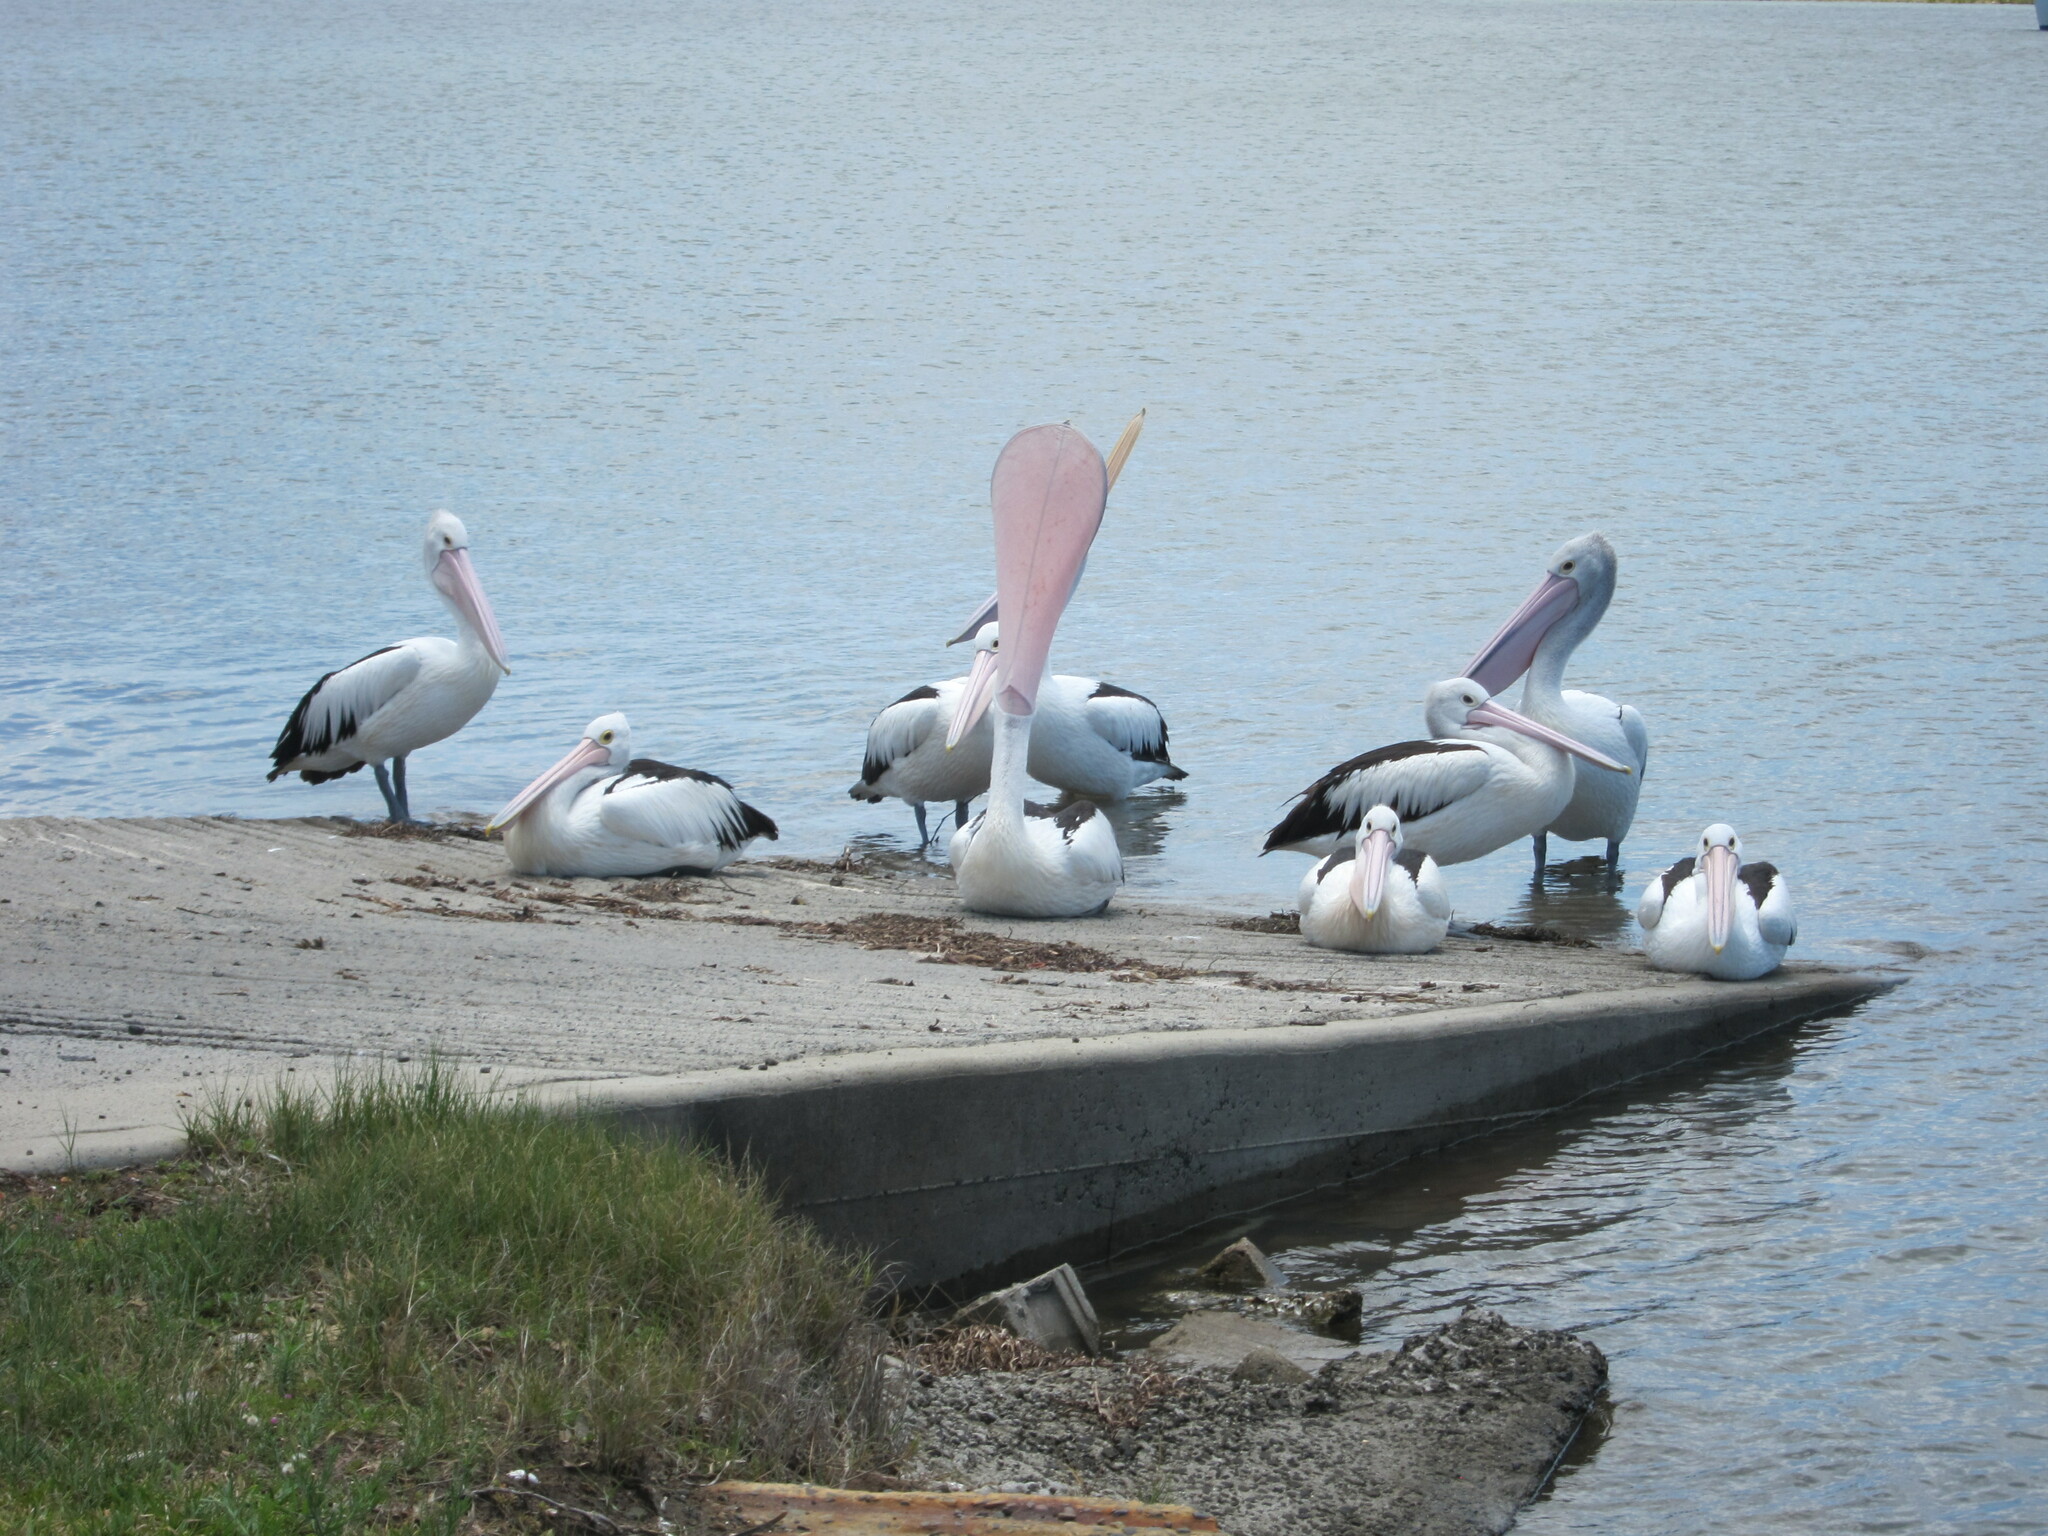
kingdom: Animalia
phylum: Chordata
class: Aves
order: Pelecaniformes
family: Pelecanidae
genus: Pelecanus
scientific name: Pelecanus conspicillatus
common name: Australian pelican
